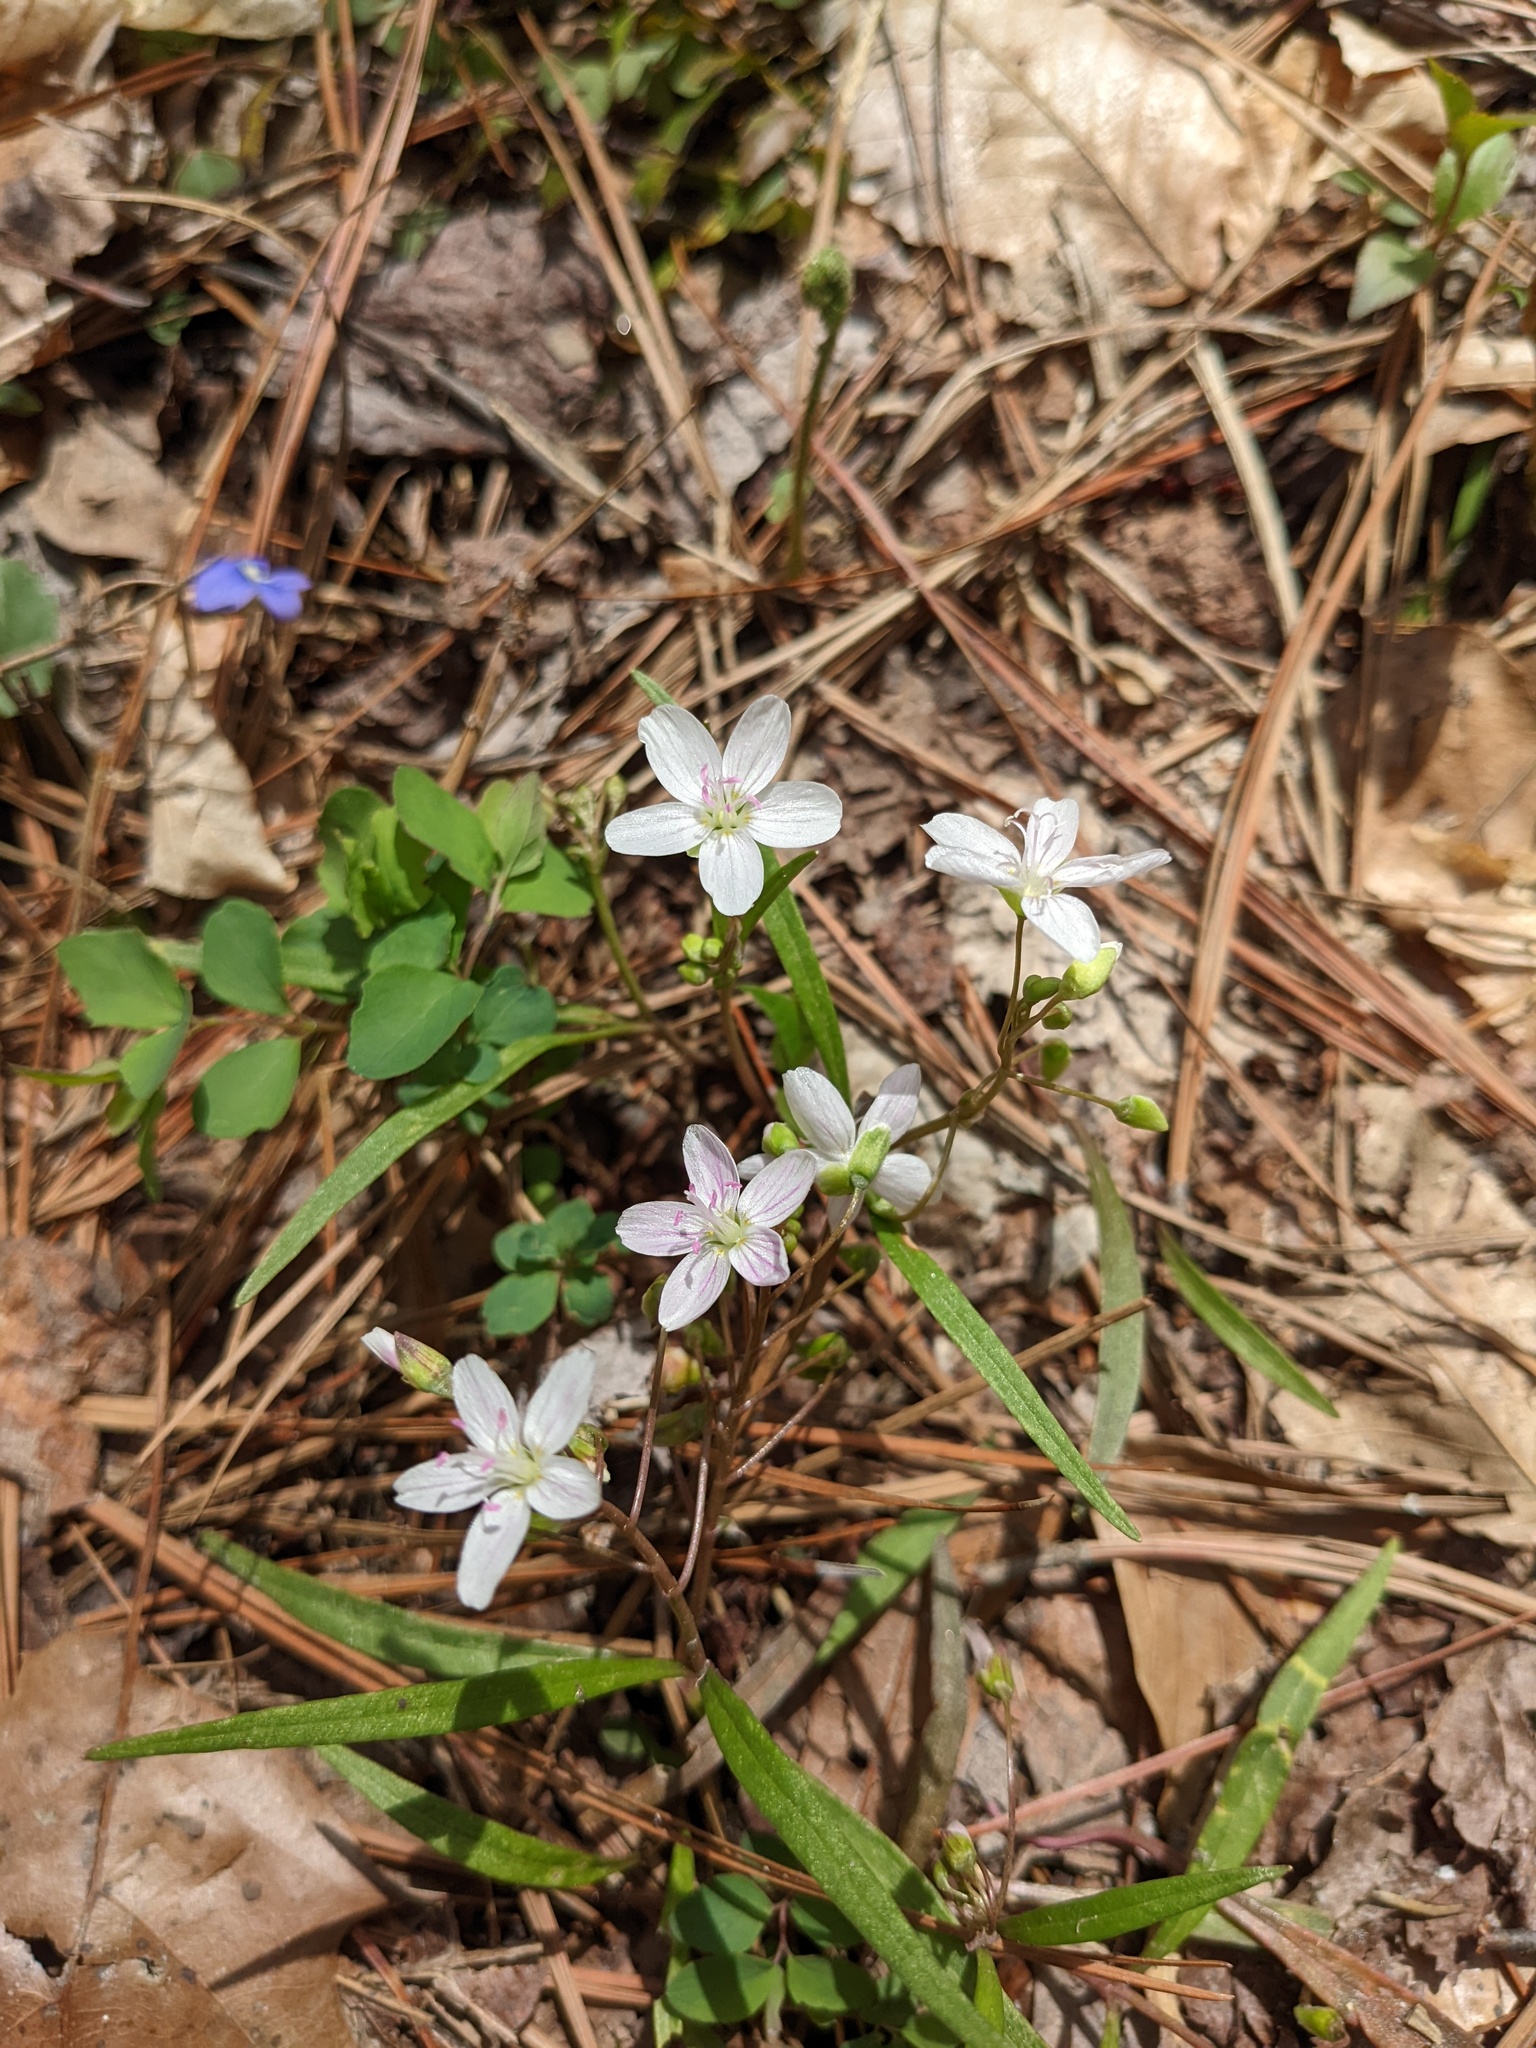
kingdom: Plantae
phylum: Tracheophyta
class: Magnoliopsida
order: Caryophyllales
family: Montiaceae
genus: Claytonia
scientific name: Claytonia virginica
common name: Virginia springbeauty
